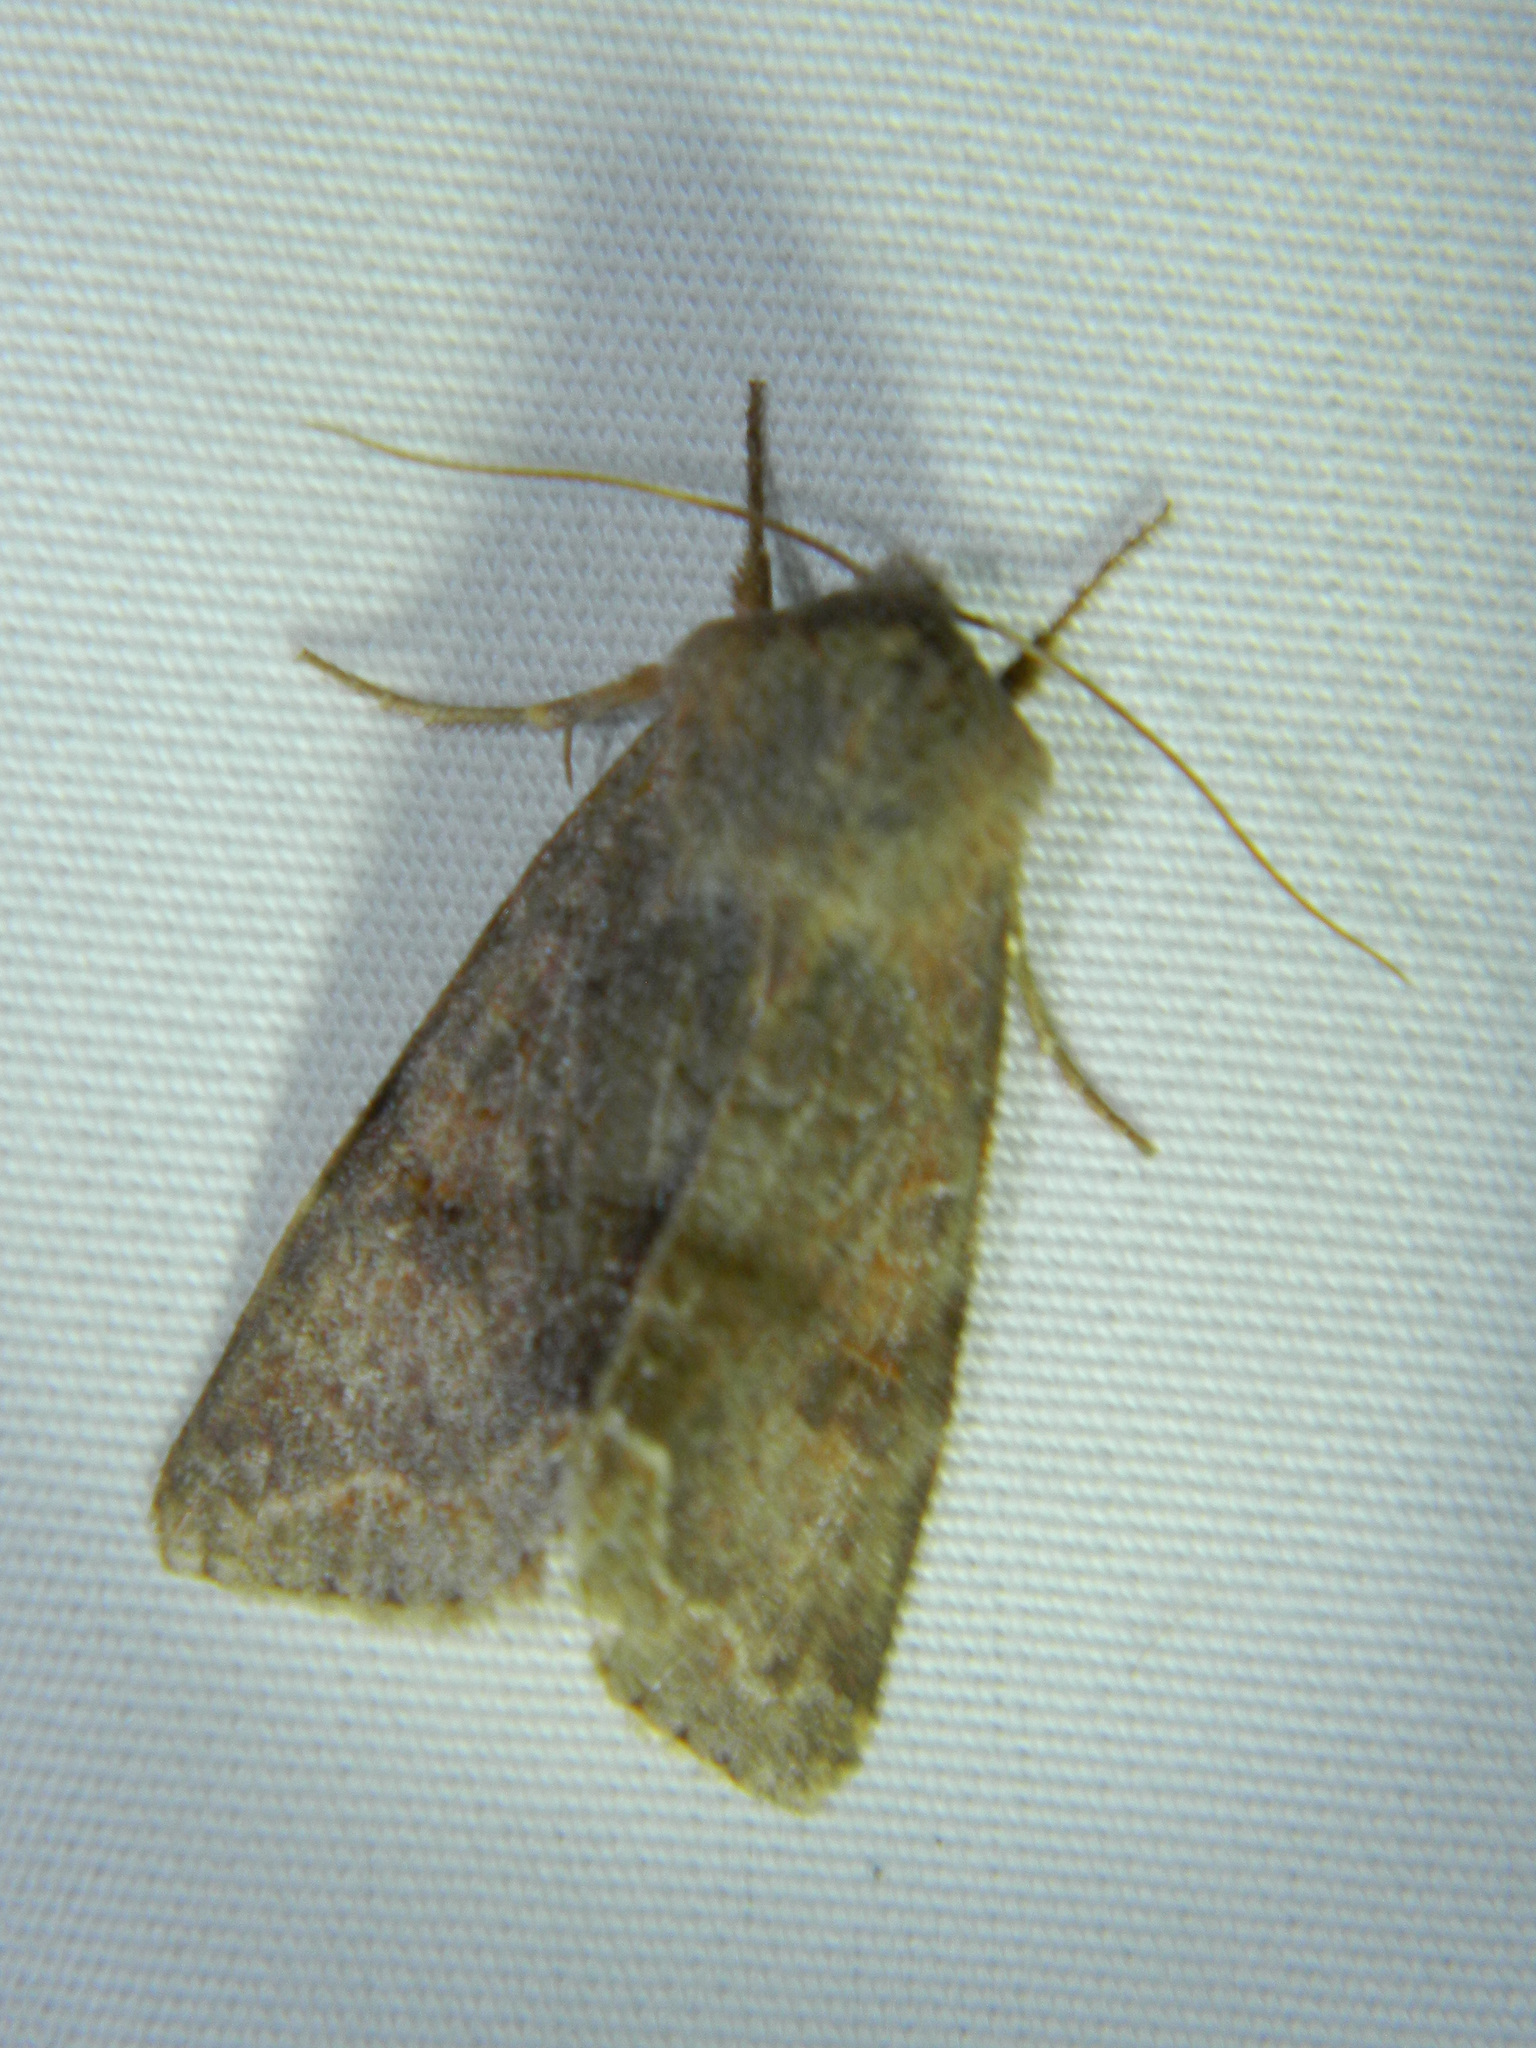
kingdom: Animalia
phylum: Arthropoda
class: Insecta
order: Lepidoptera
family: Noctuidae
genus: Orthosia
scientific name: Orthosia hibisci
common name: Green fruitworm
